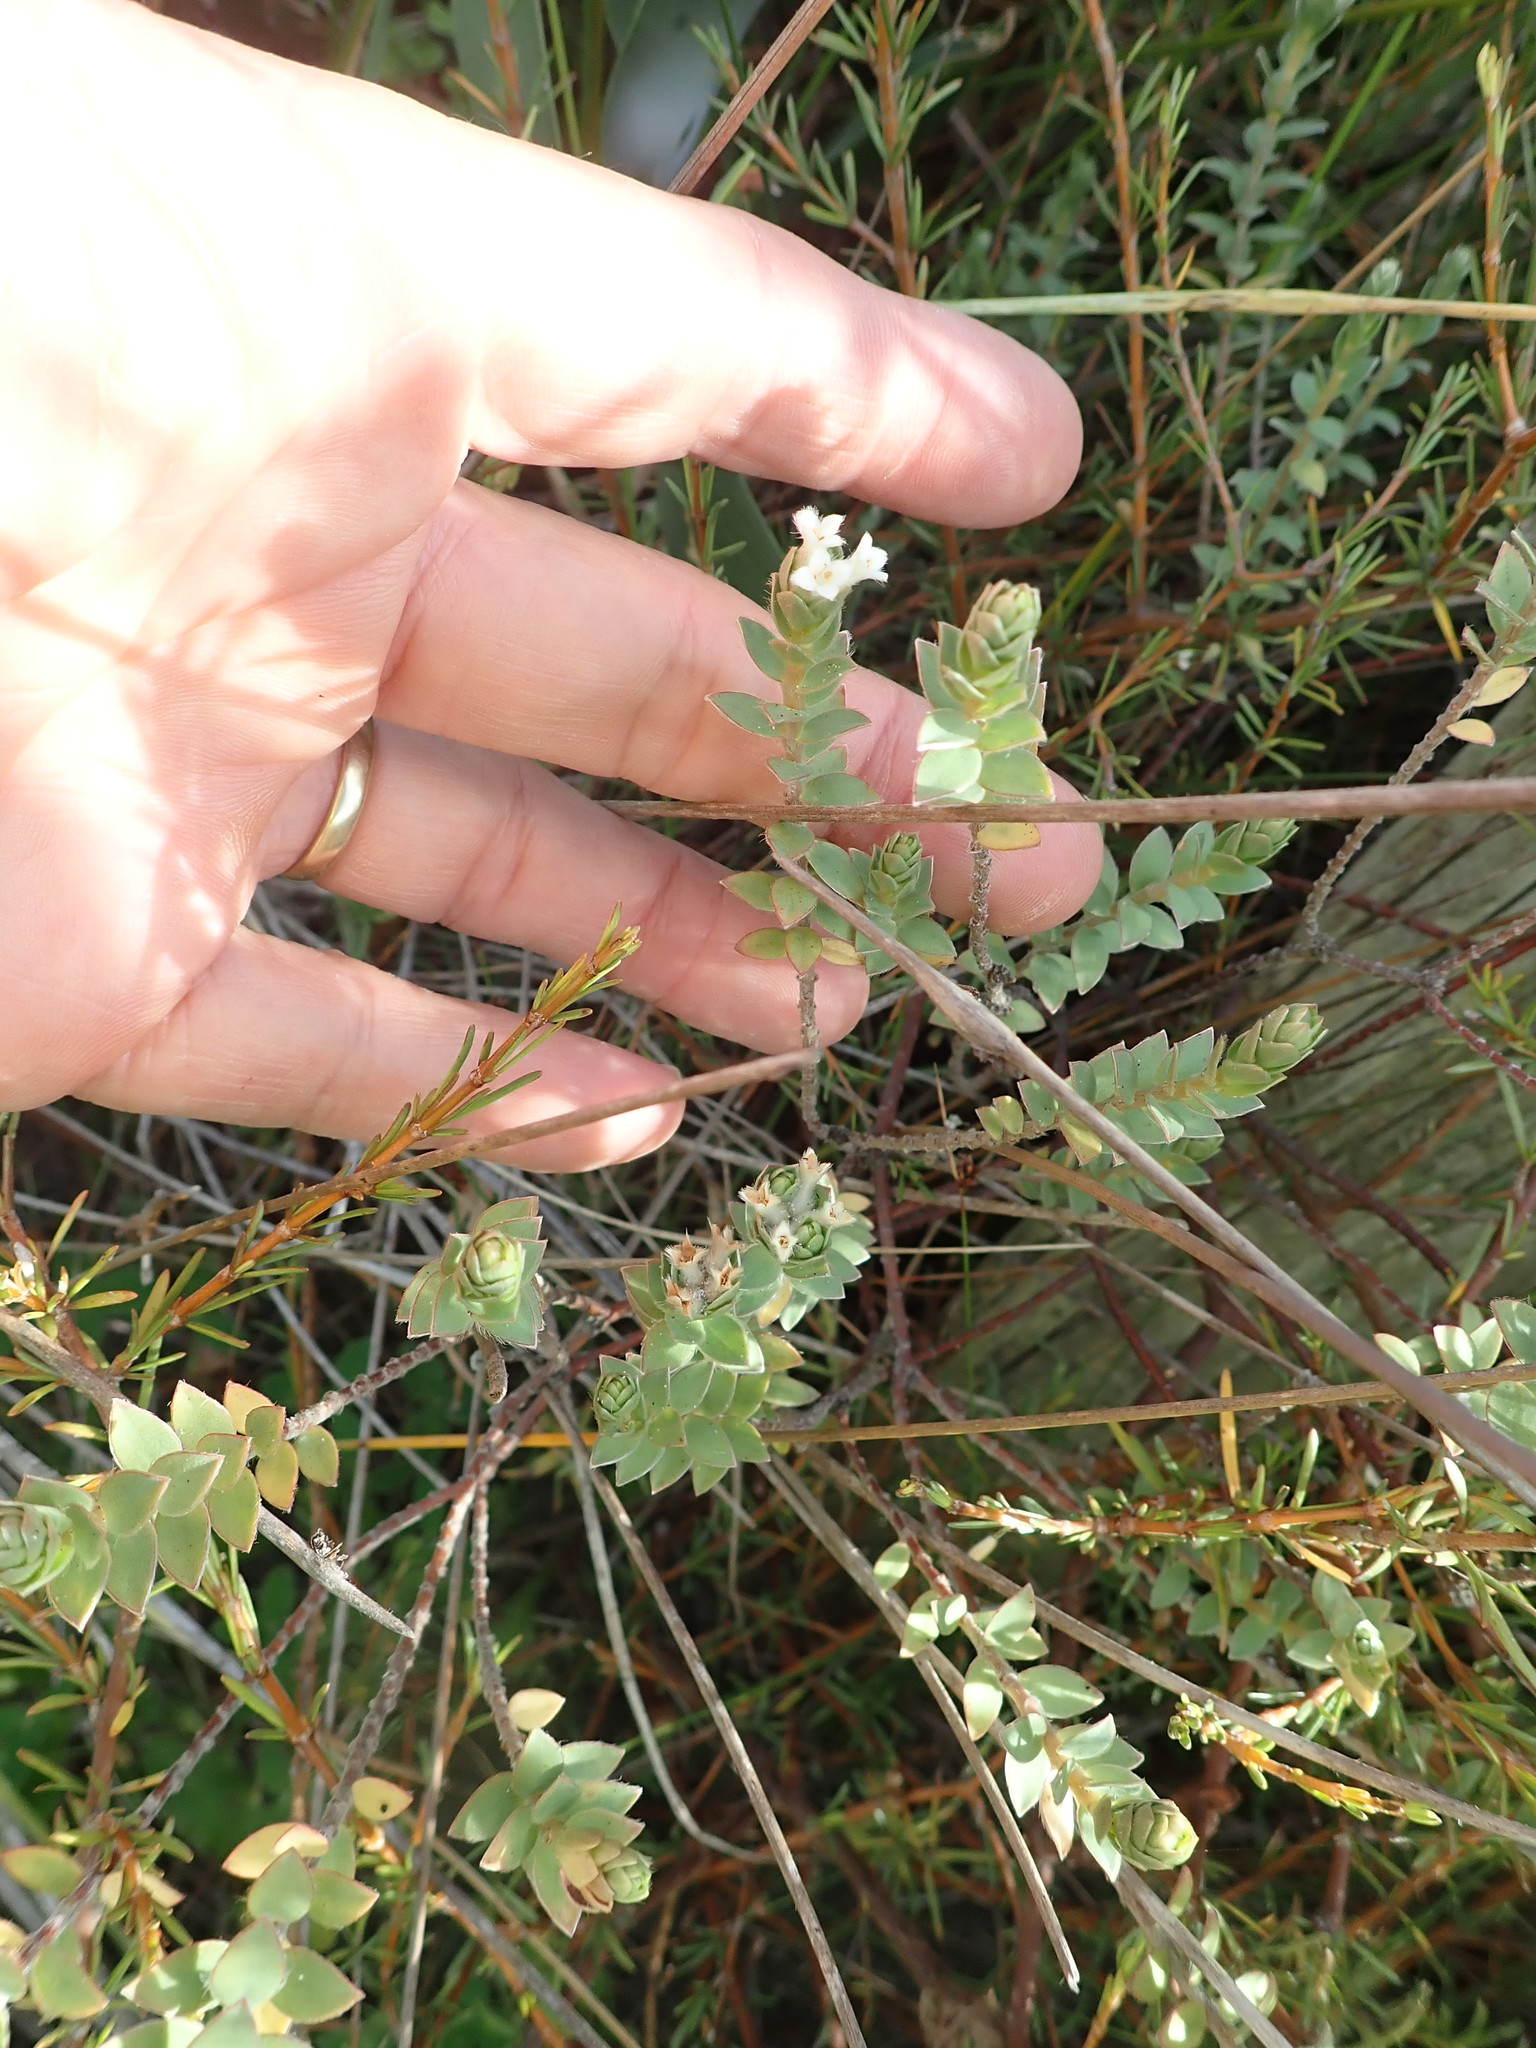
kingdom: Plantae
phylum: Tracheophyta
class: Magnoliopsida
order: Malvales
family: Thymelaeaceae
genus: Pimelea
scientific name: Pimelea villosa
